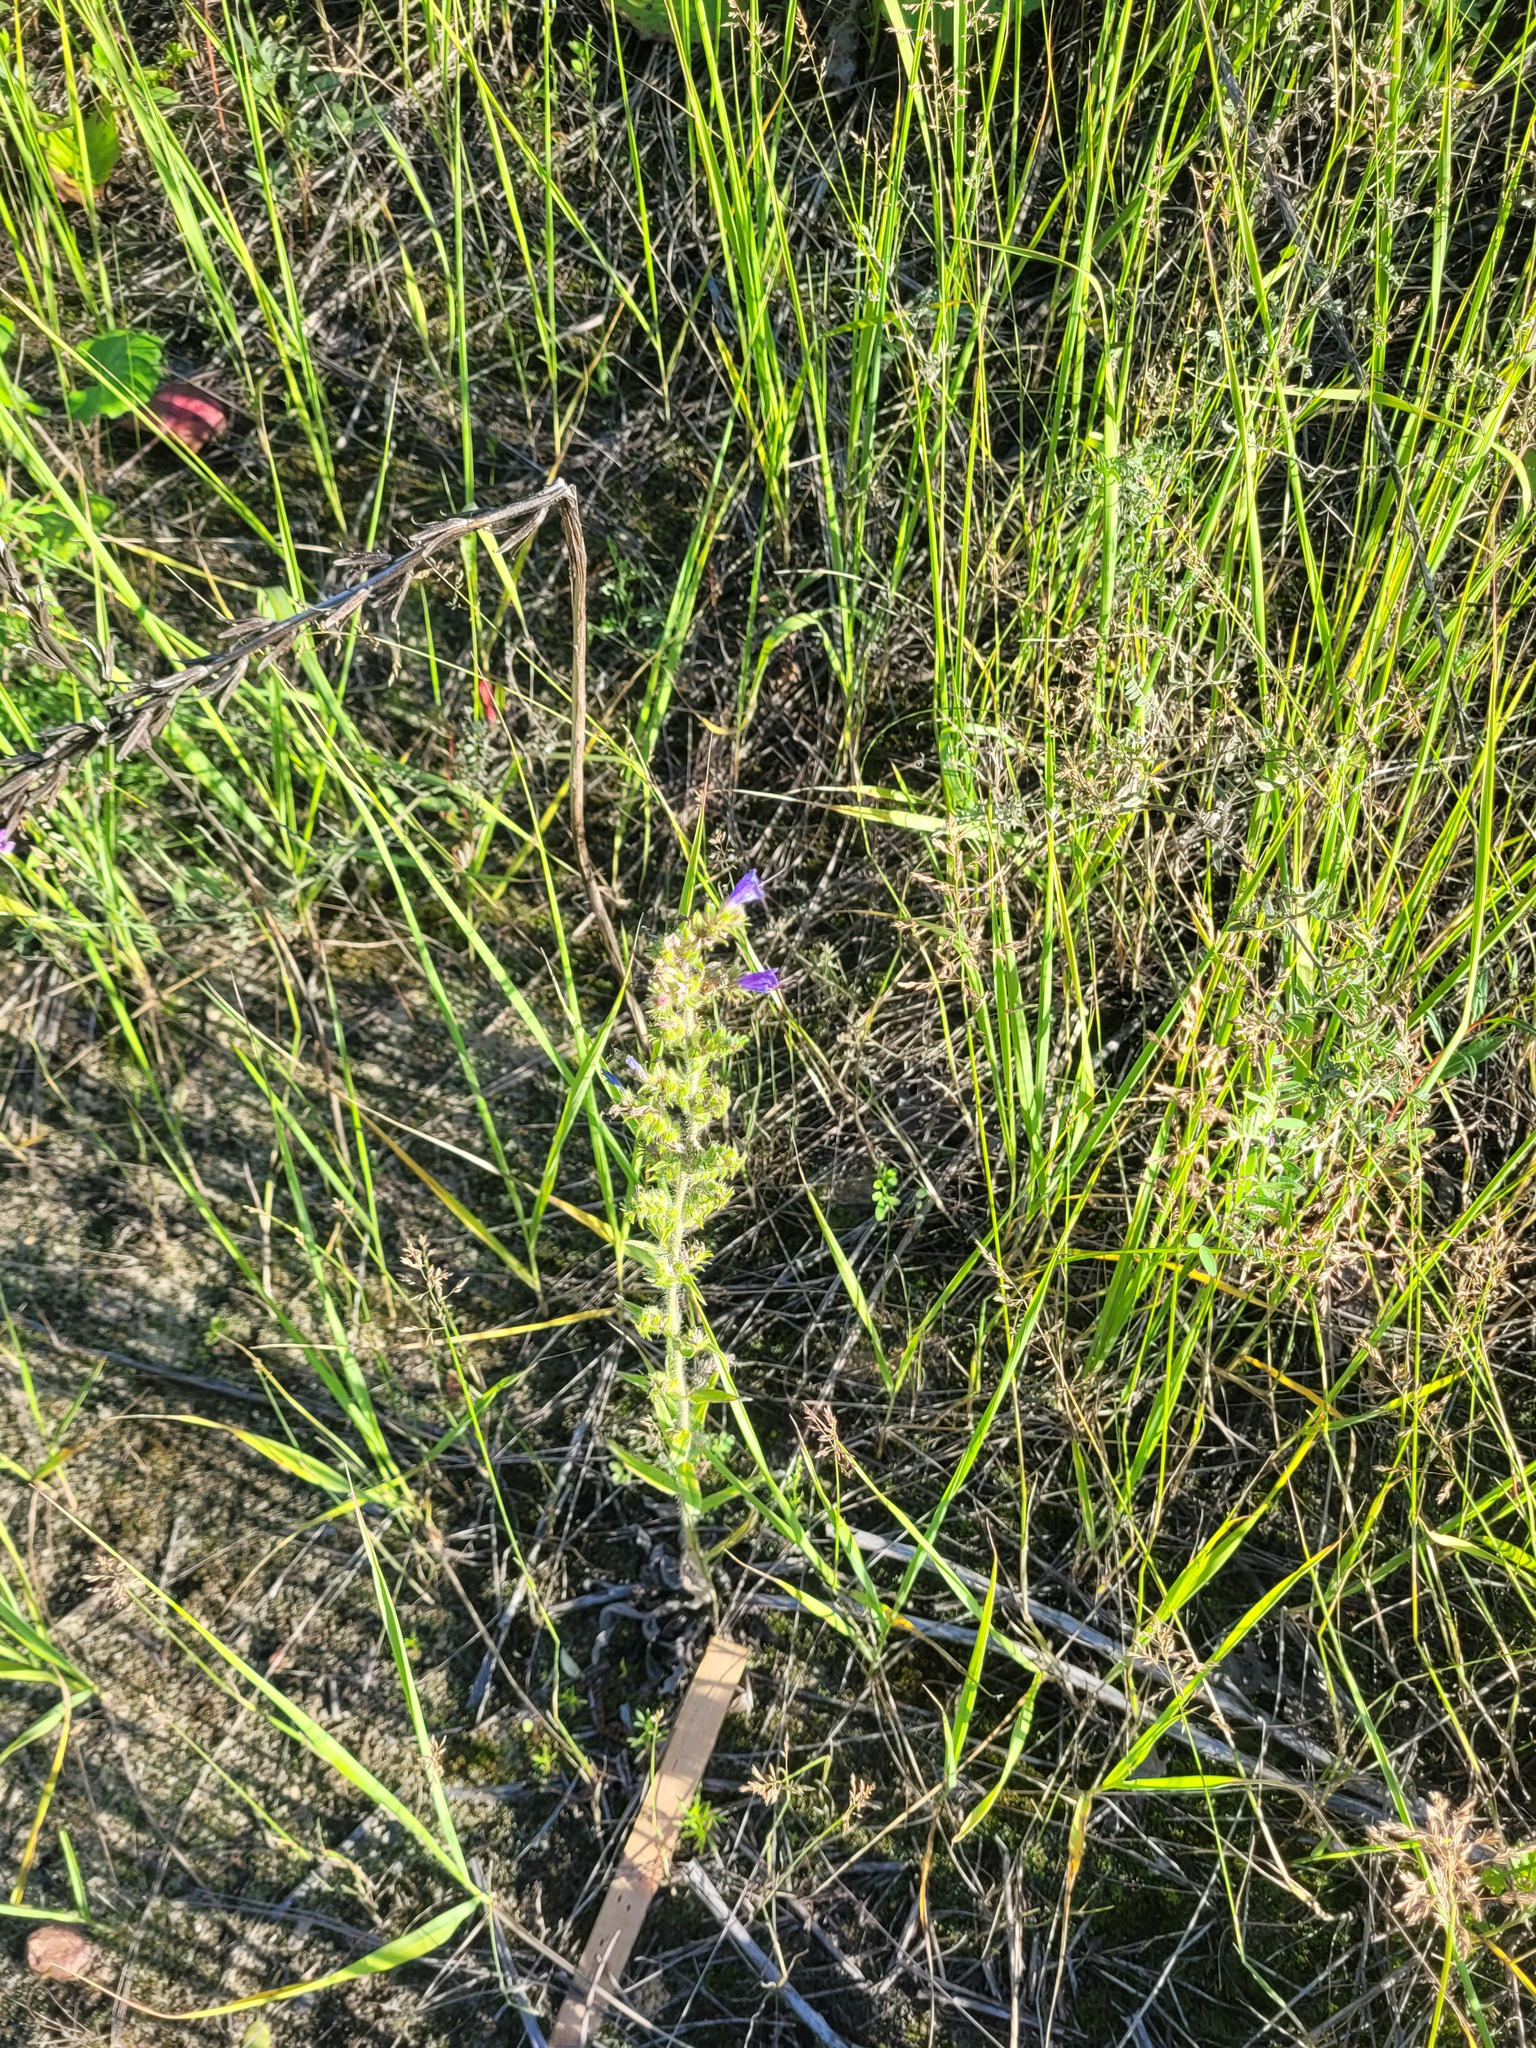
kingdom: Plantae
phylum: Tracheophyta
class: Magnoliopsida
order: Boraginales
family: Boraginaceae
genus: Echium
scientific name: Echium vulgare
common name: Common viper's bugloss
